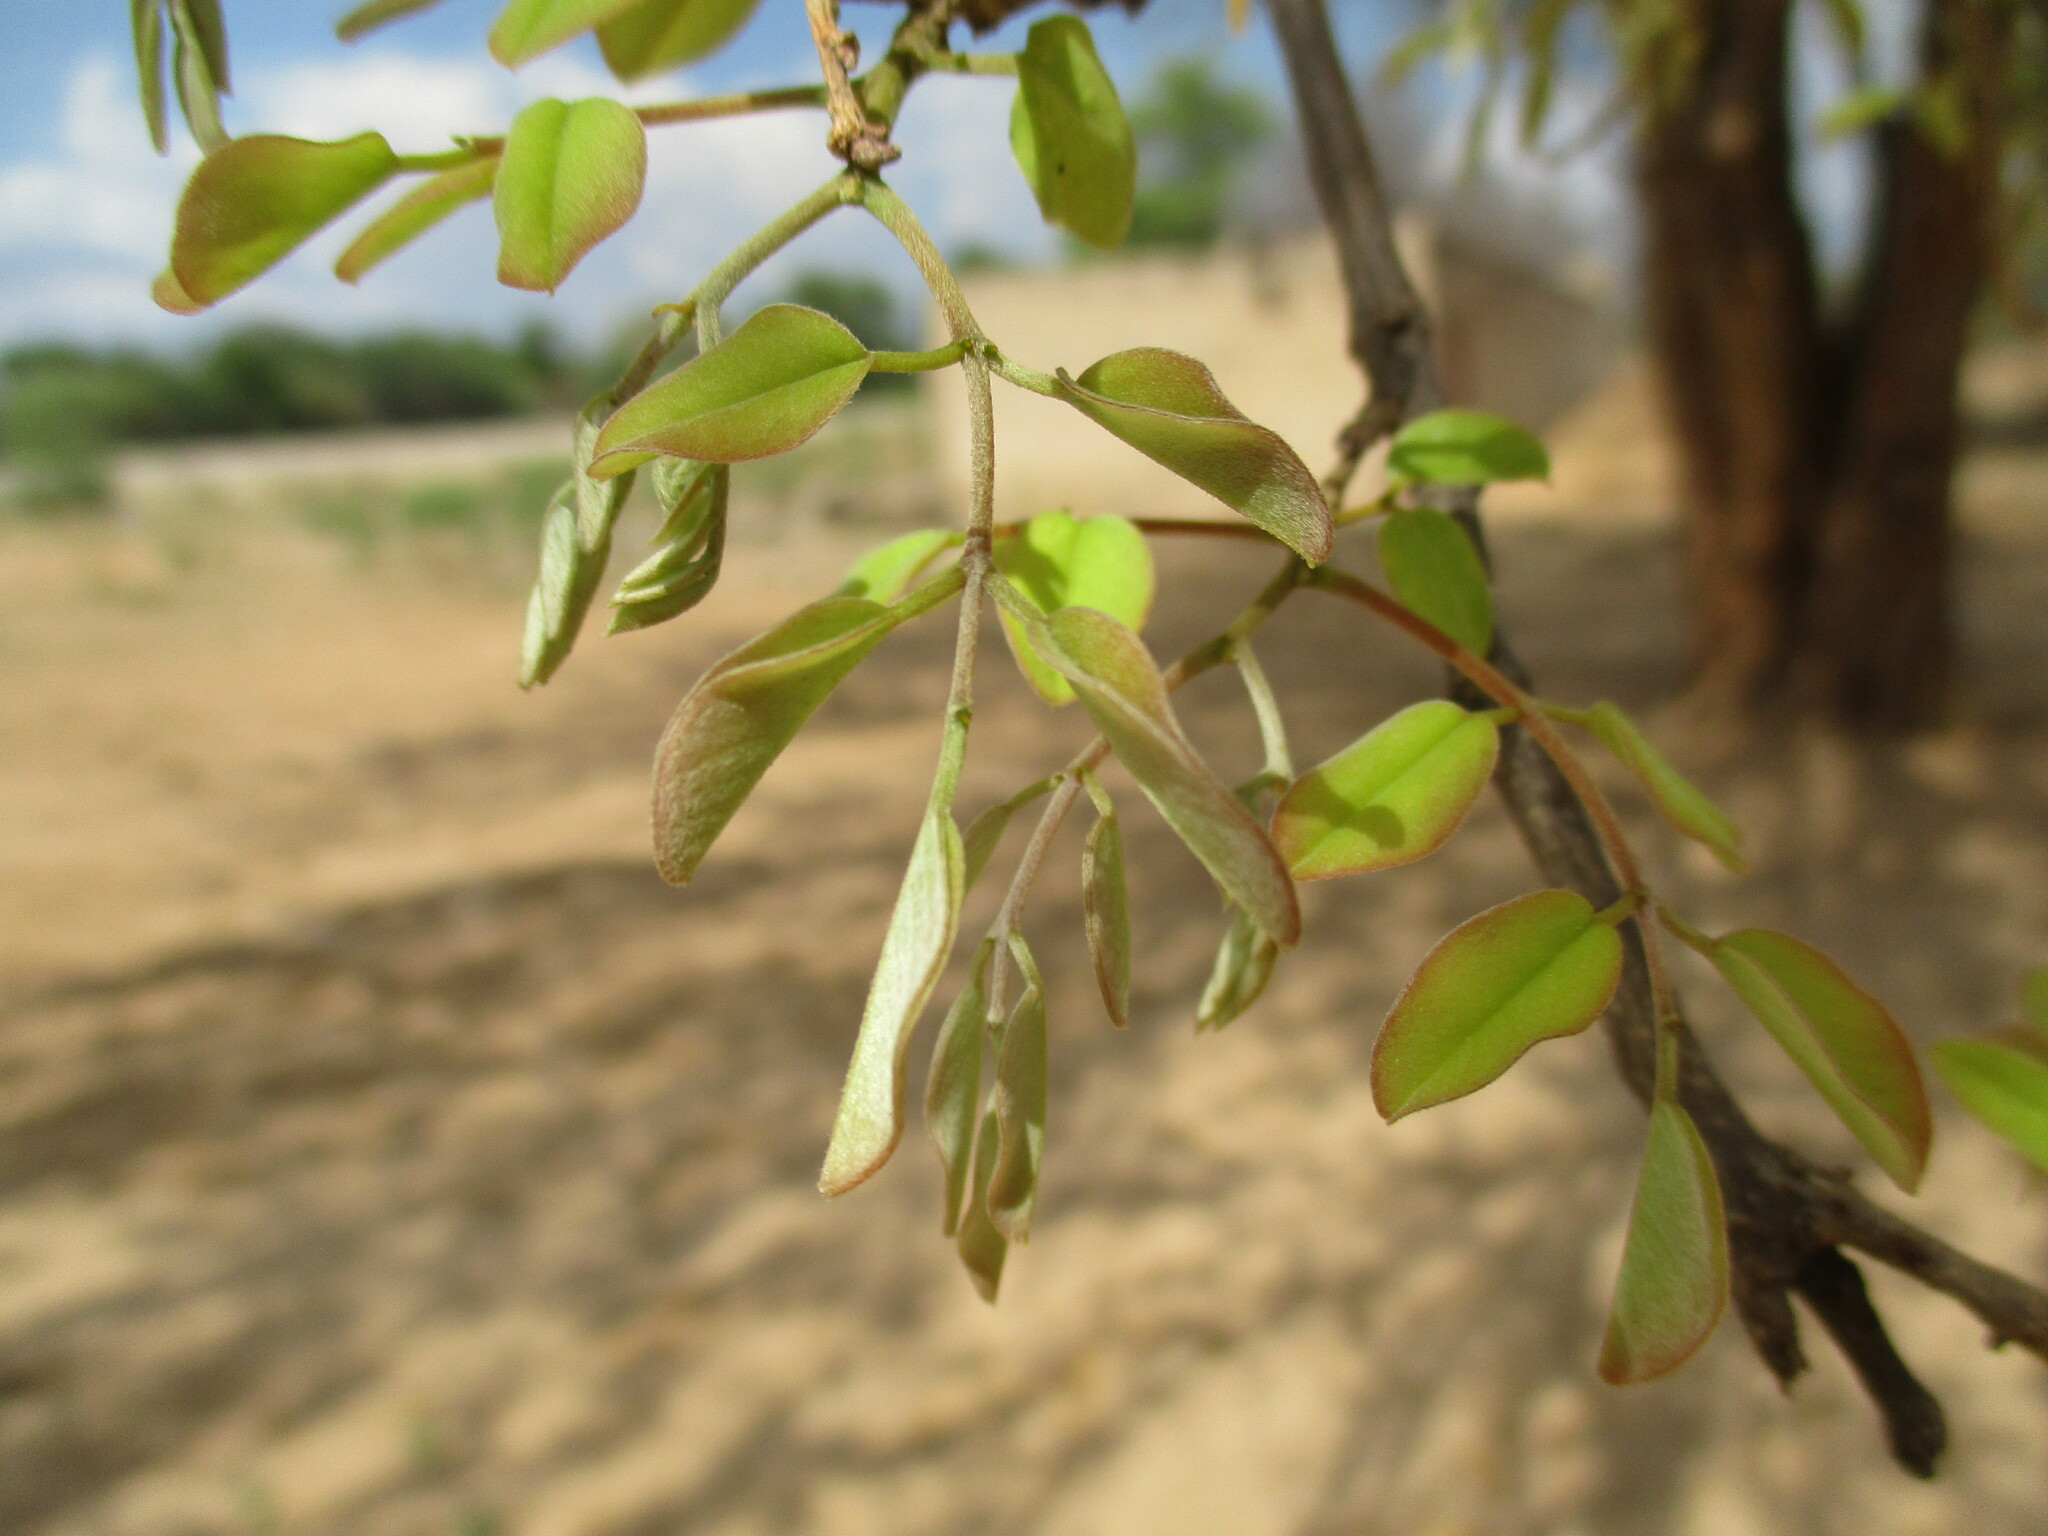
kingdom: Plantae
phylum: Tracheophyta
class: Magnoliopsida
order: Fabales
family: Fabaceae
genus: Pterocarpus
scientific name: Pterocarpus lucens
